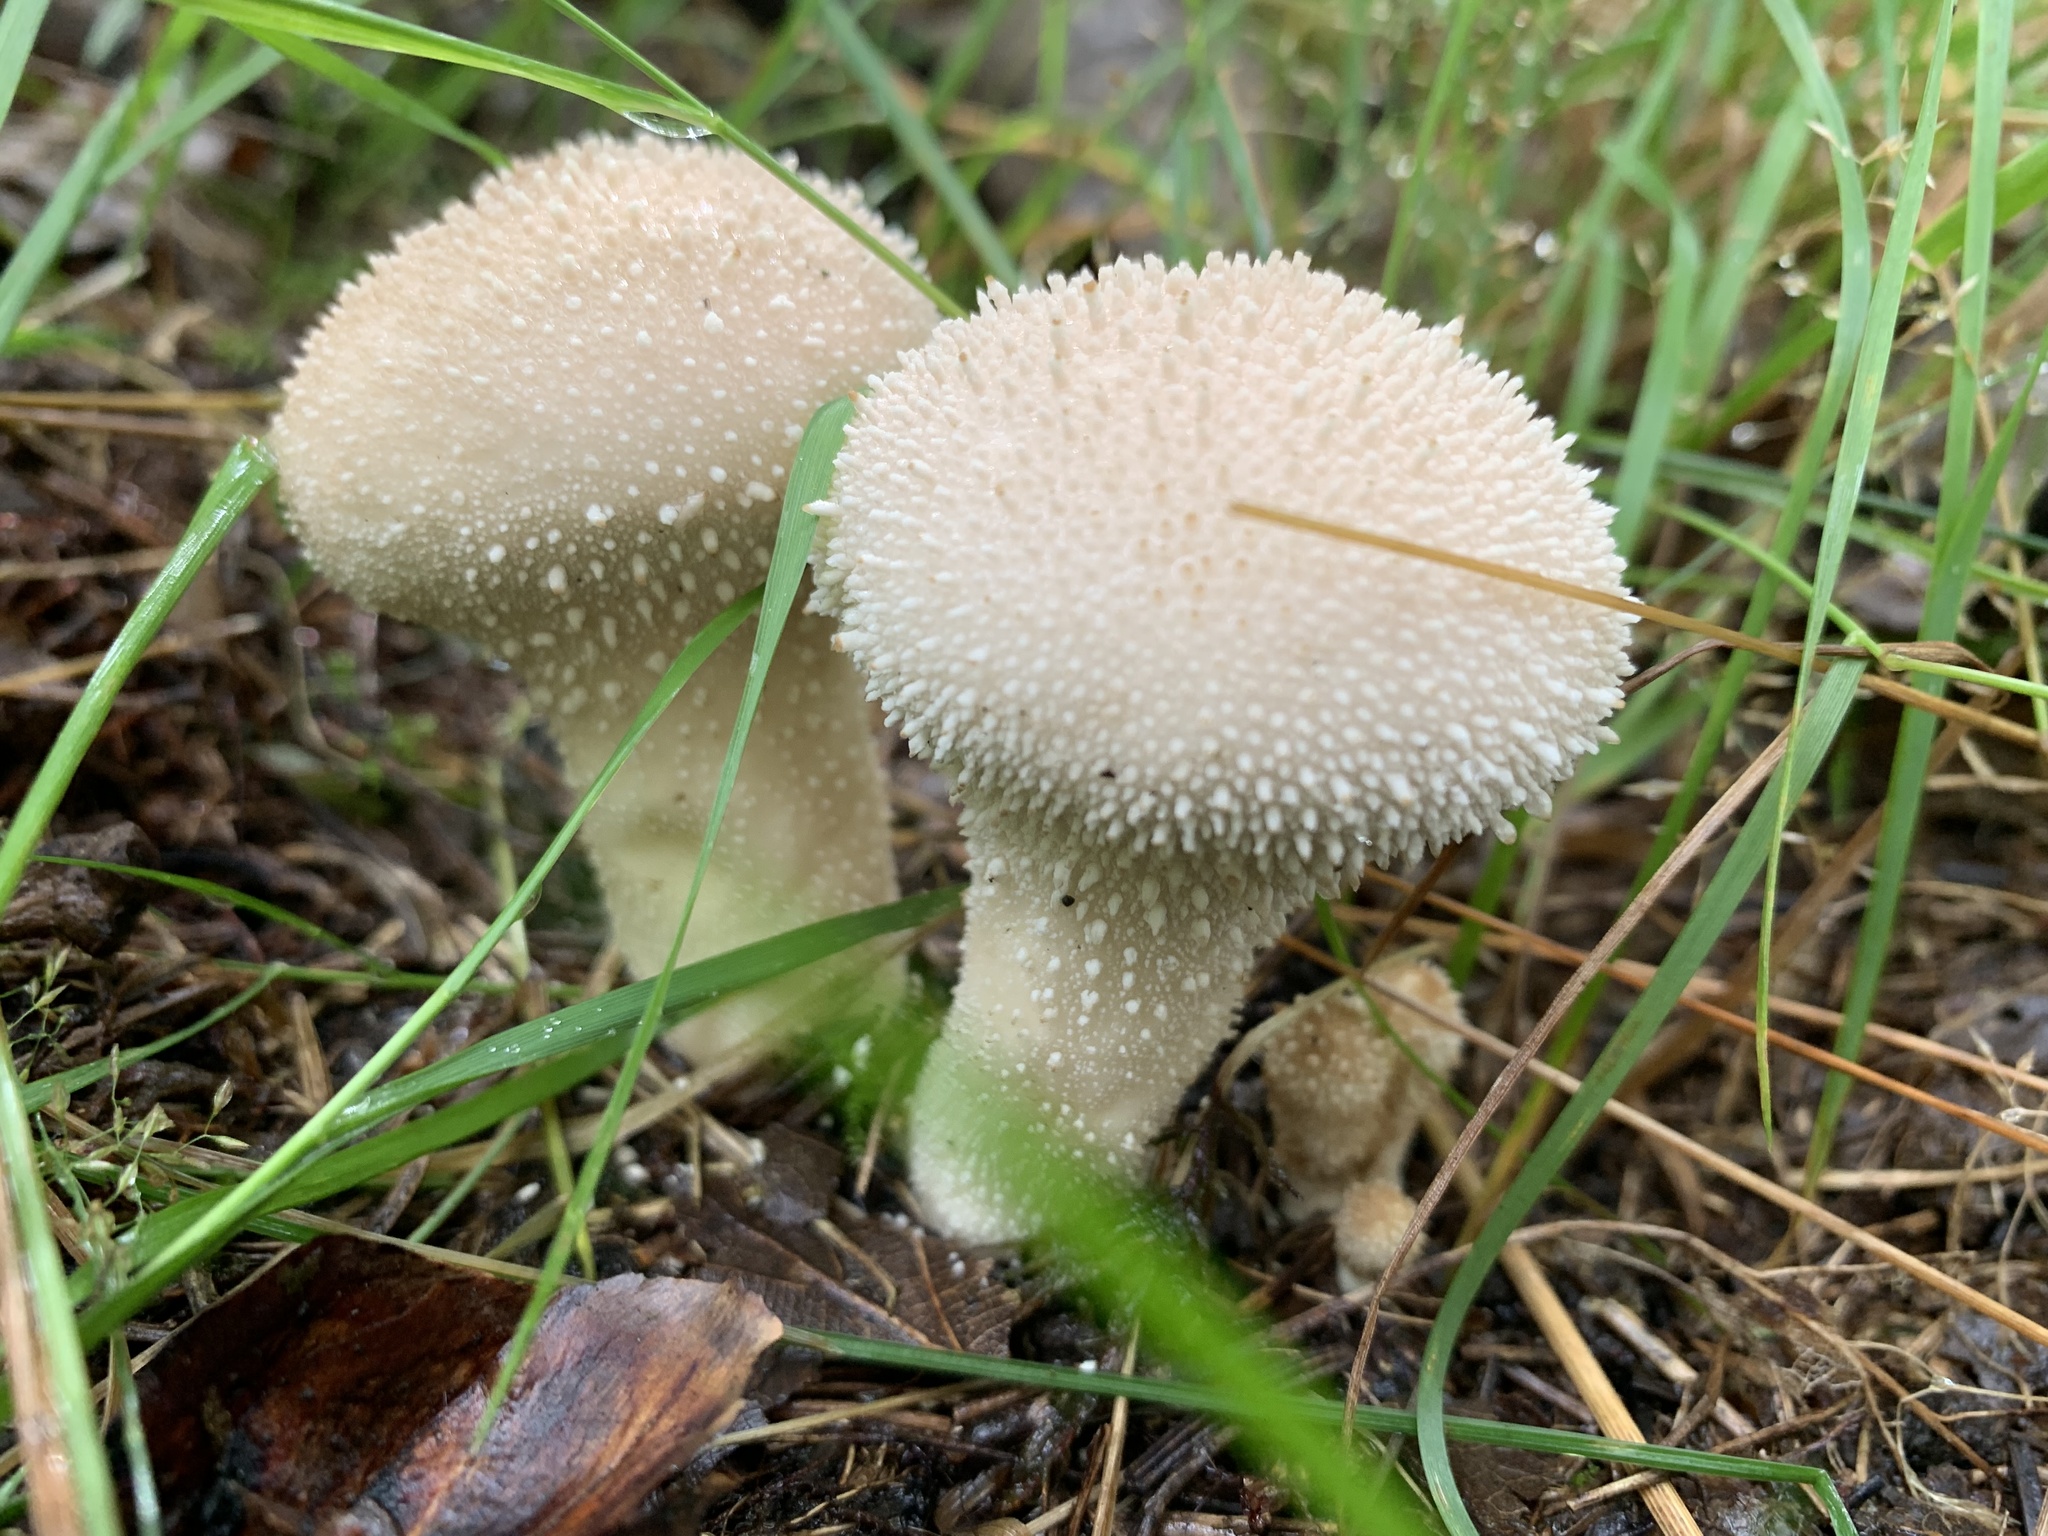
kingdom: Fungi
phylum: Basidiomycota
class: Agaricomycetes
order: Agaricales
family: Lycoperdaceae
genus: Lycoperdon
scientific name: Lycoperdon perlatum
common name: Common puffball
